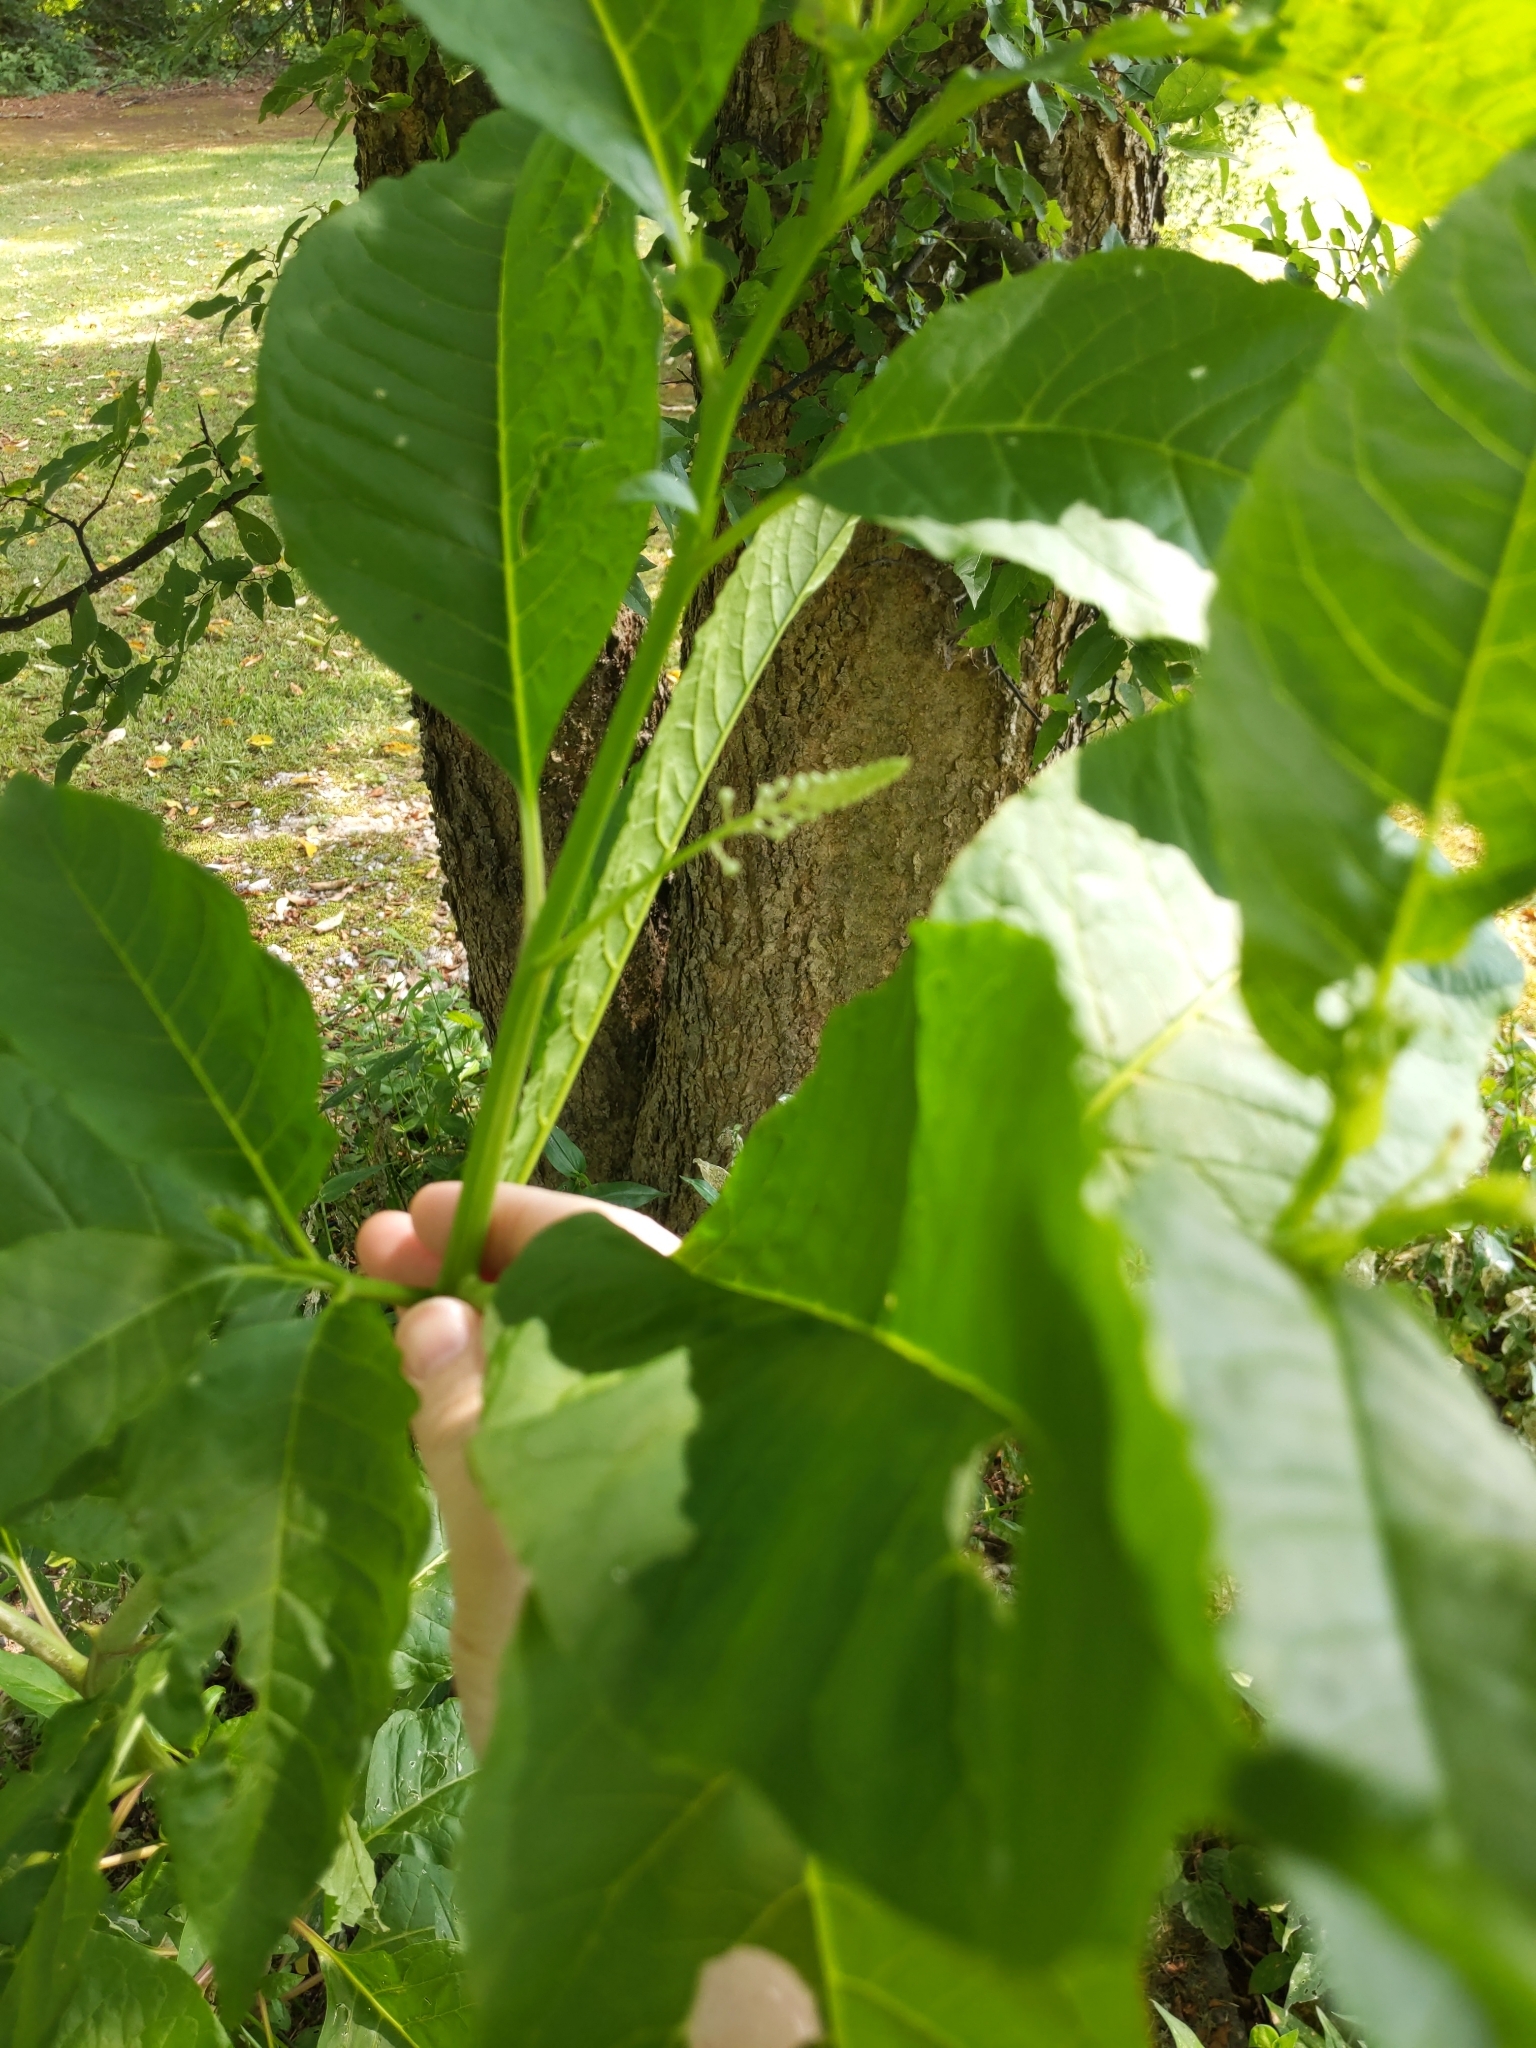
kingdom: Plantae
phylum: Tracheophyta
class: Magnoliopsida
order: Caryophyllales
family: Phytolaccaceae
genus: Phytolacca
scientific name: Phytolacca americana
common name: American pokeweed
